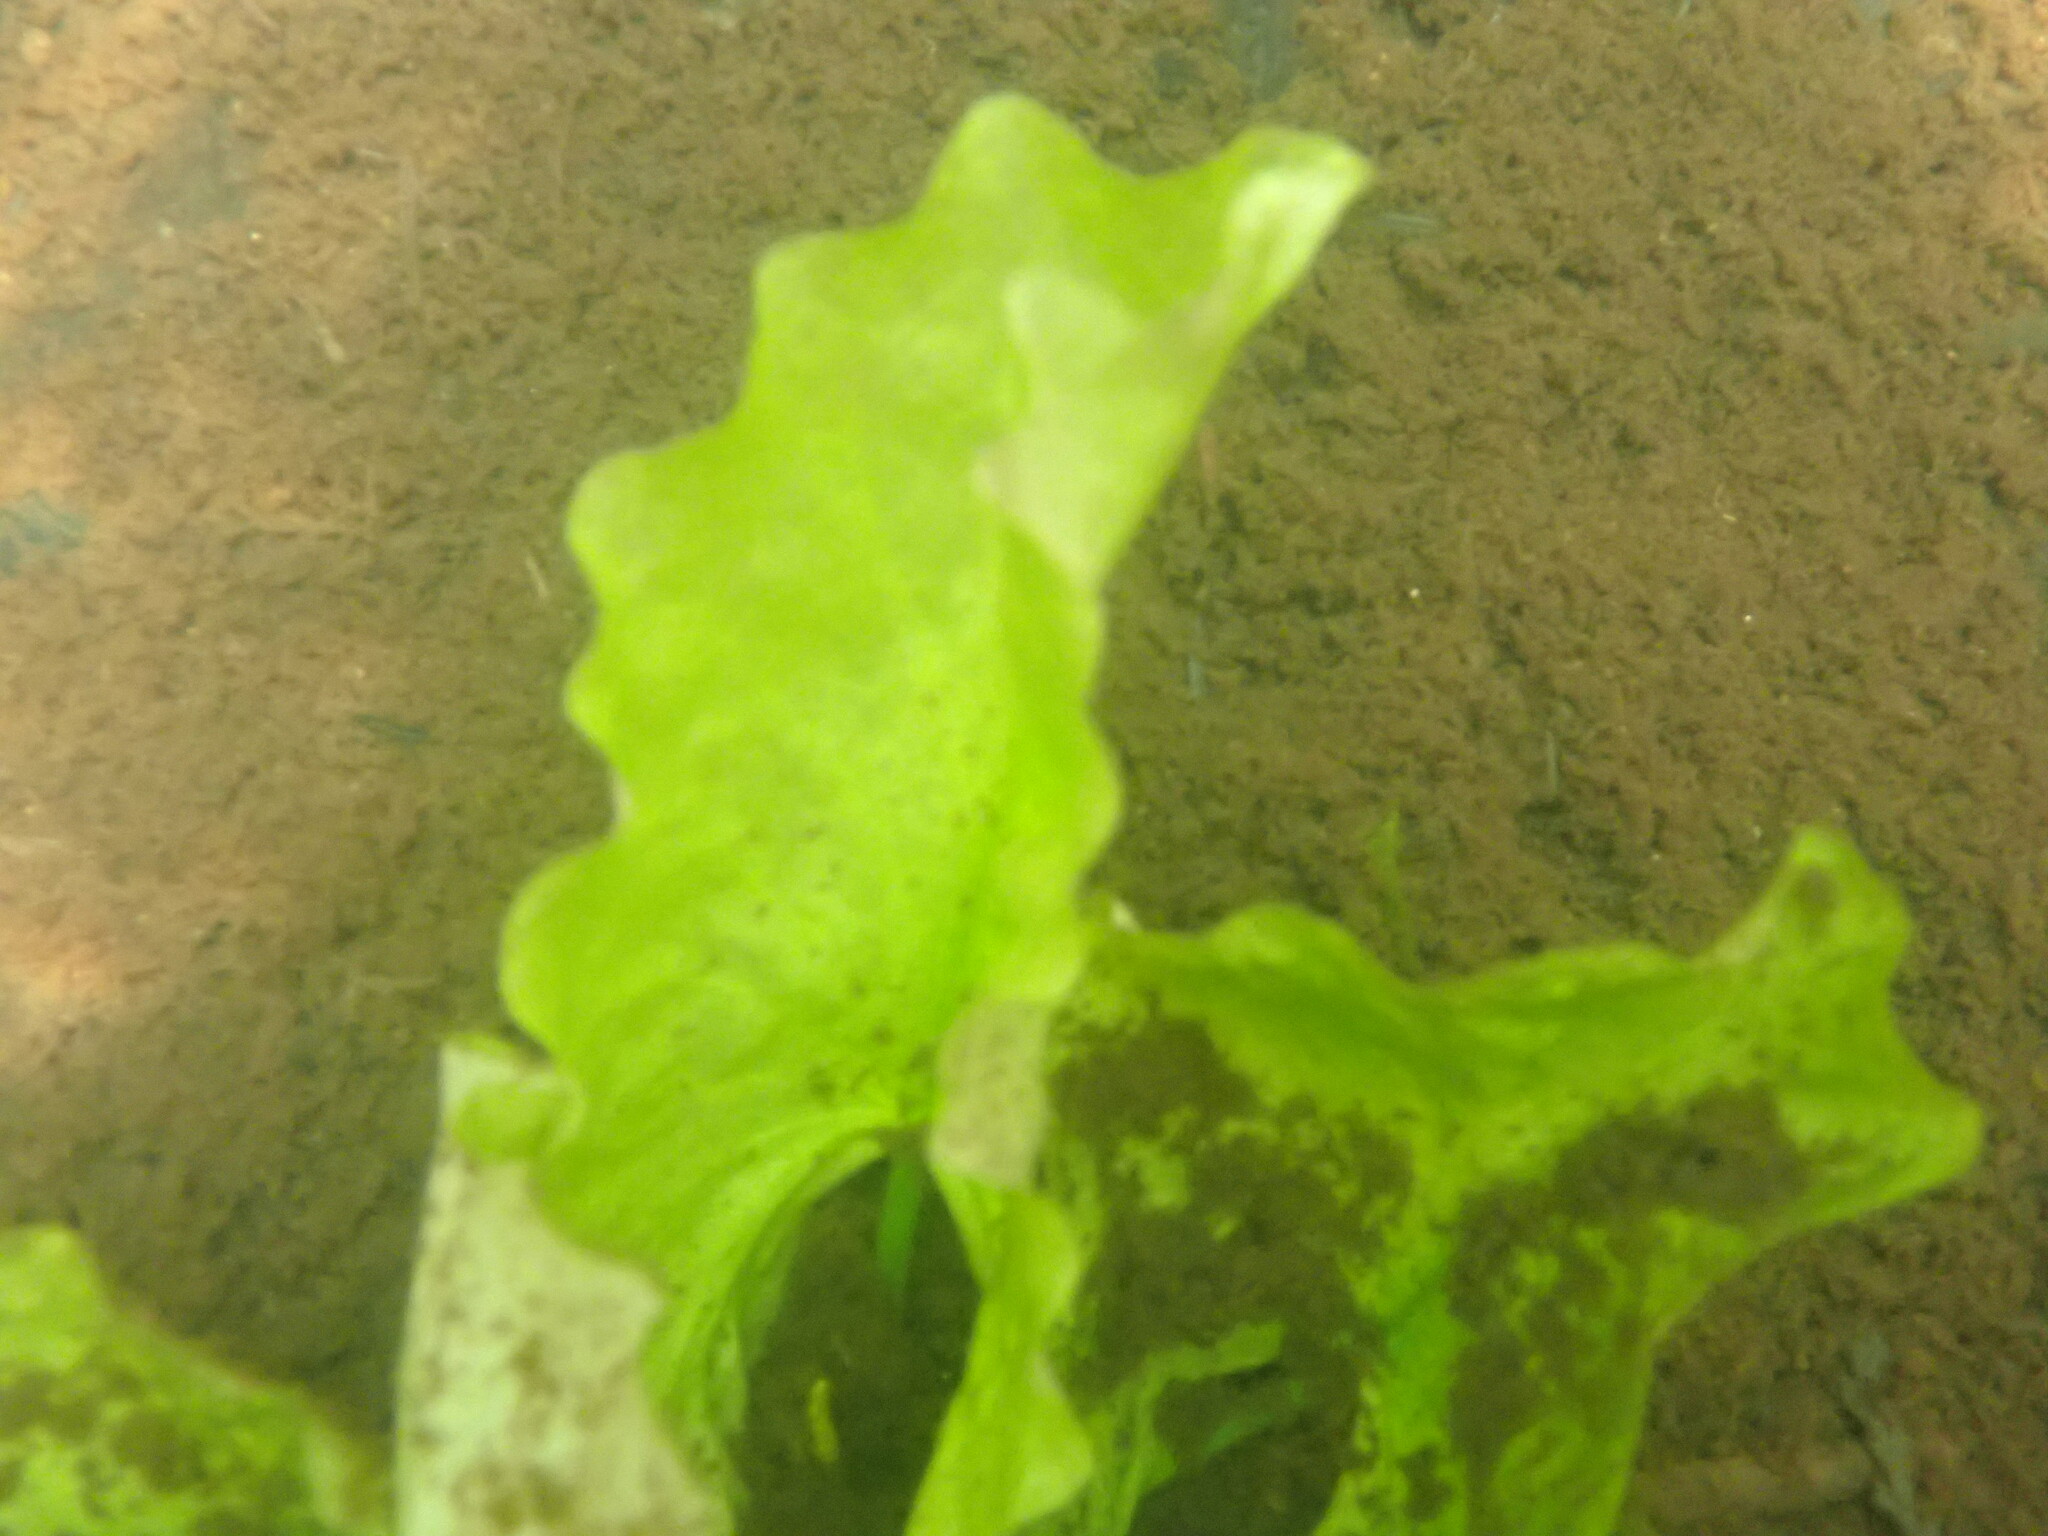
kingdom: Plantae
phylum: Tracheophyta
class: Magnoliopsida
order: Nymphaeales
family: Nymphaeaceae
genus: Nuphar
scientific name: Nuphar polysepala
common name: Rocky mountain cow-lily
